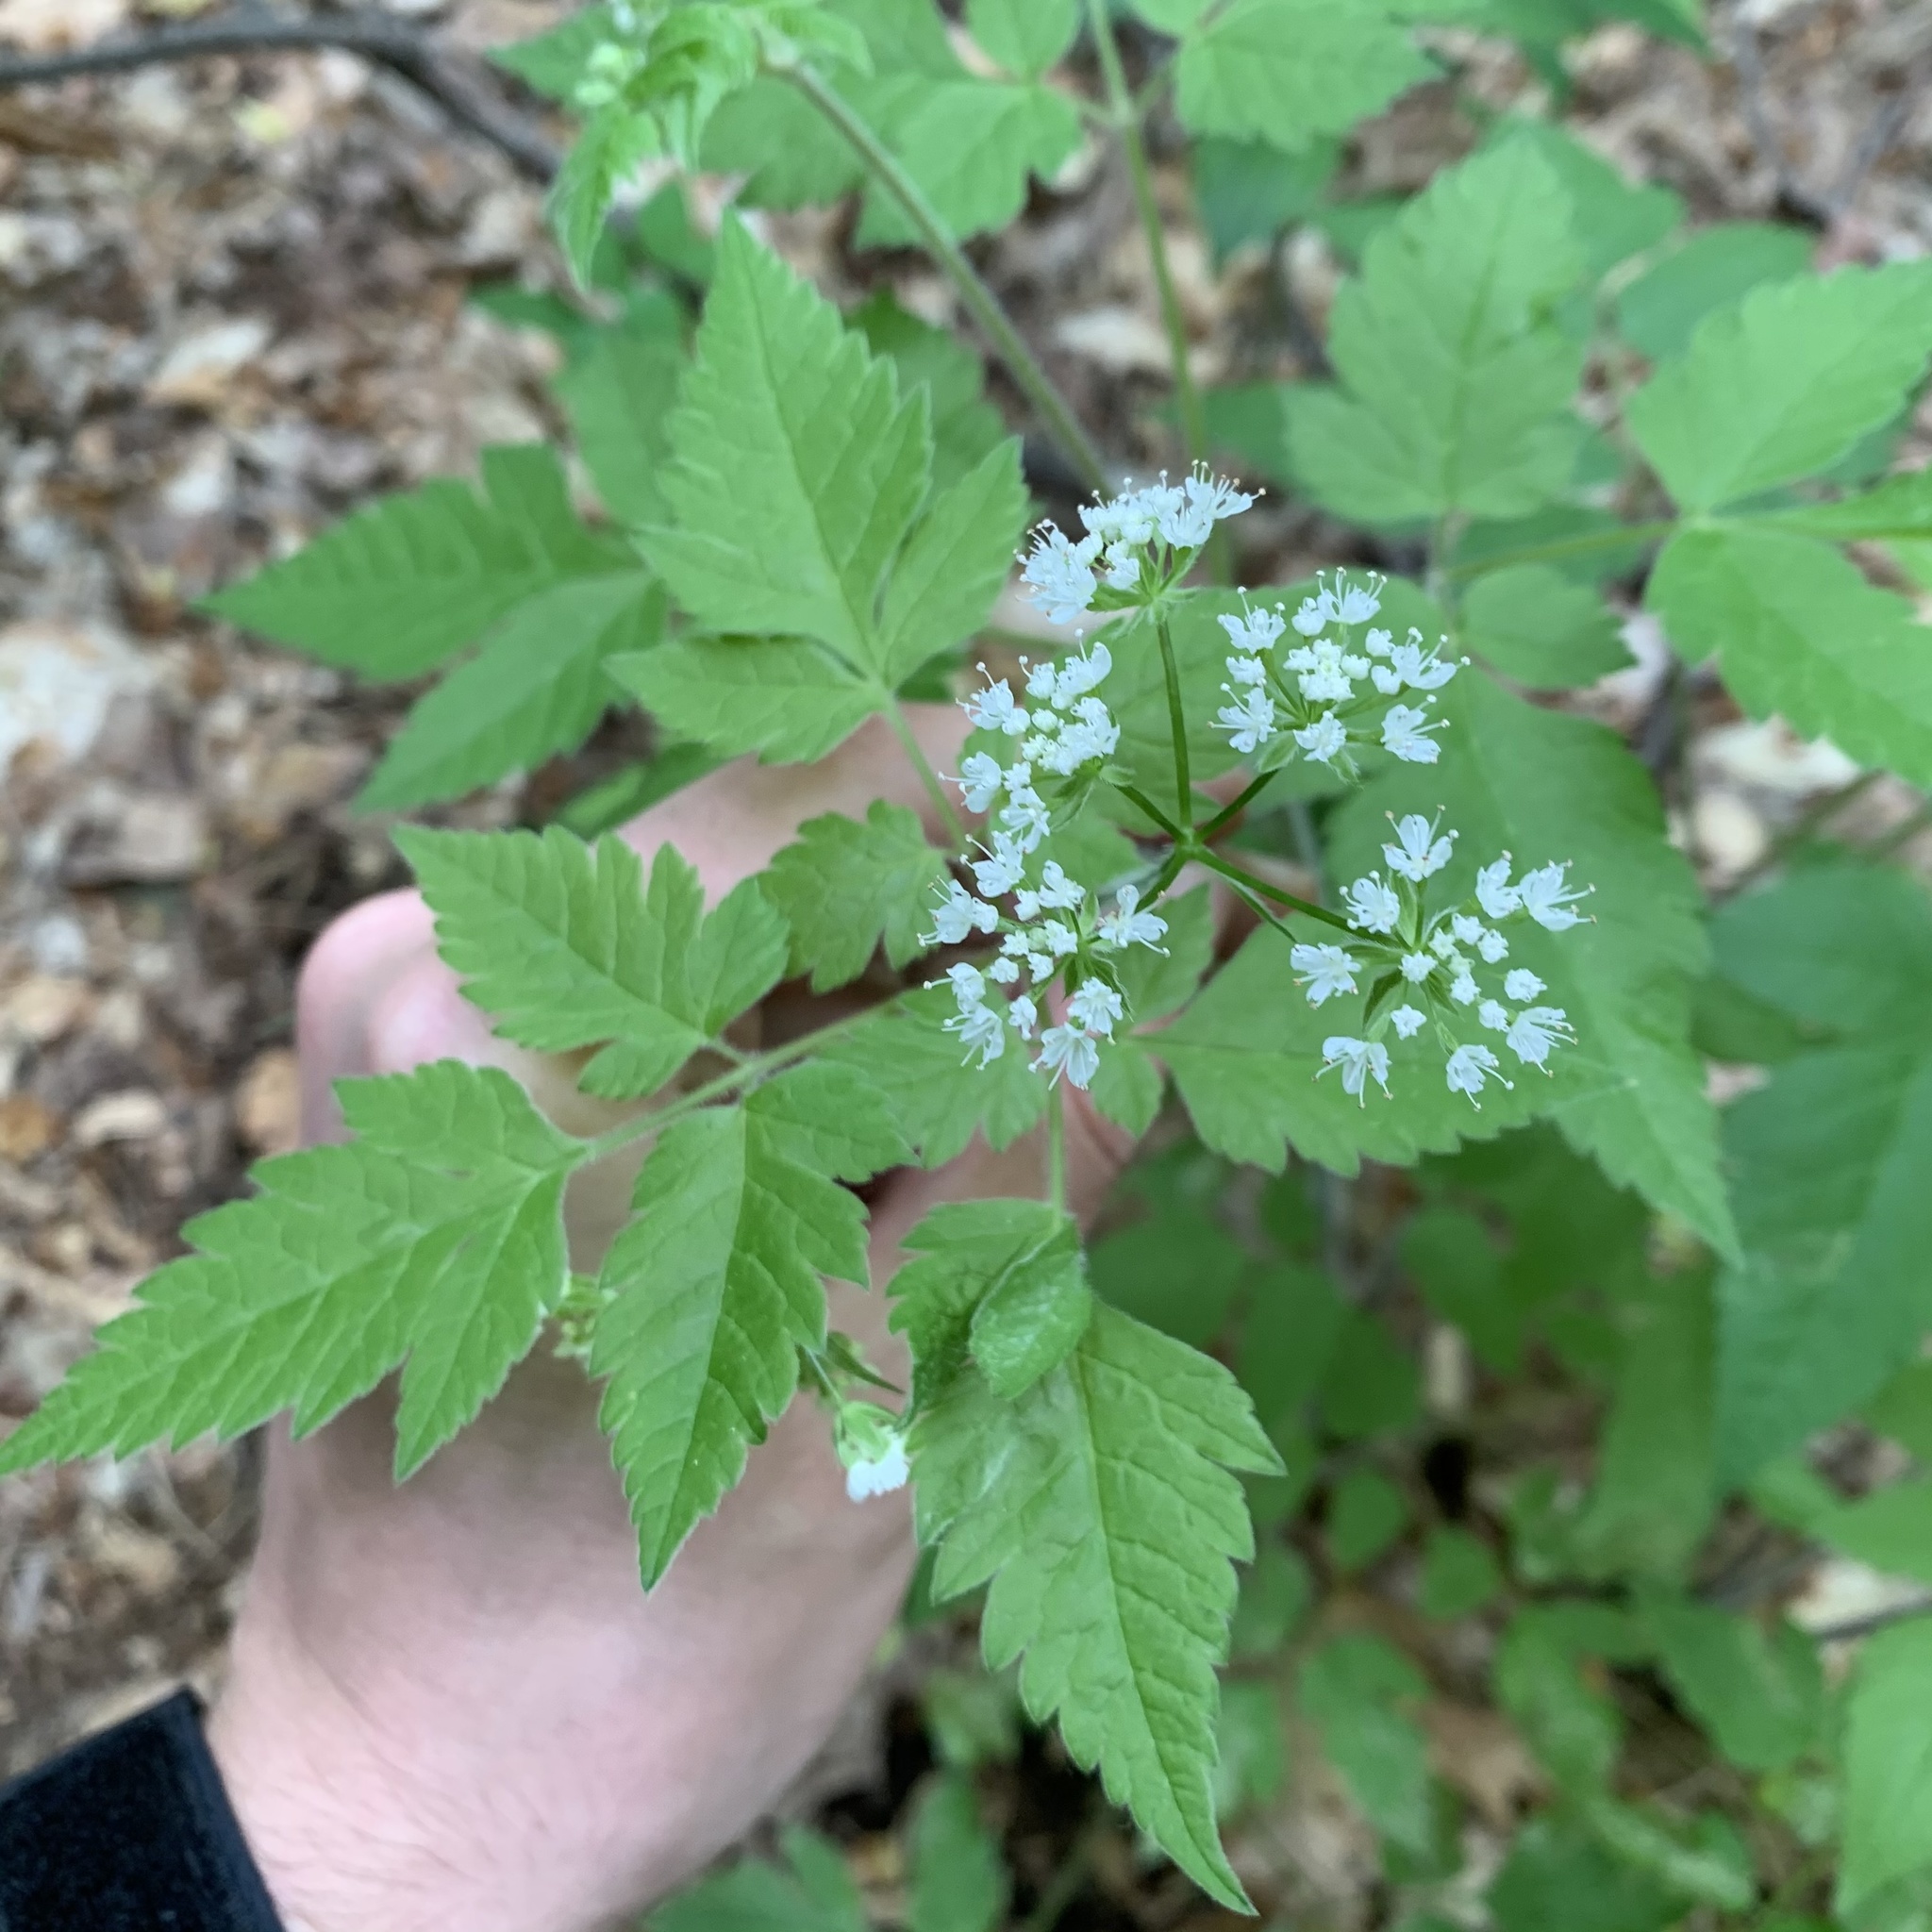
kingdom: Plantae
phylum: Tracheophyta
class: Magnoliopsida
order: Apiales
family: Apiaceae
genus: Osmorhiza
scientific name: Osmorhiza longistylis
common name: Smooth sweet cicely
